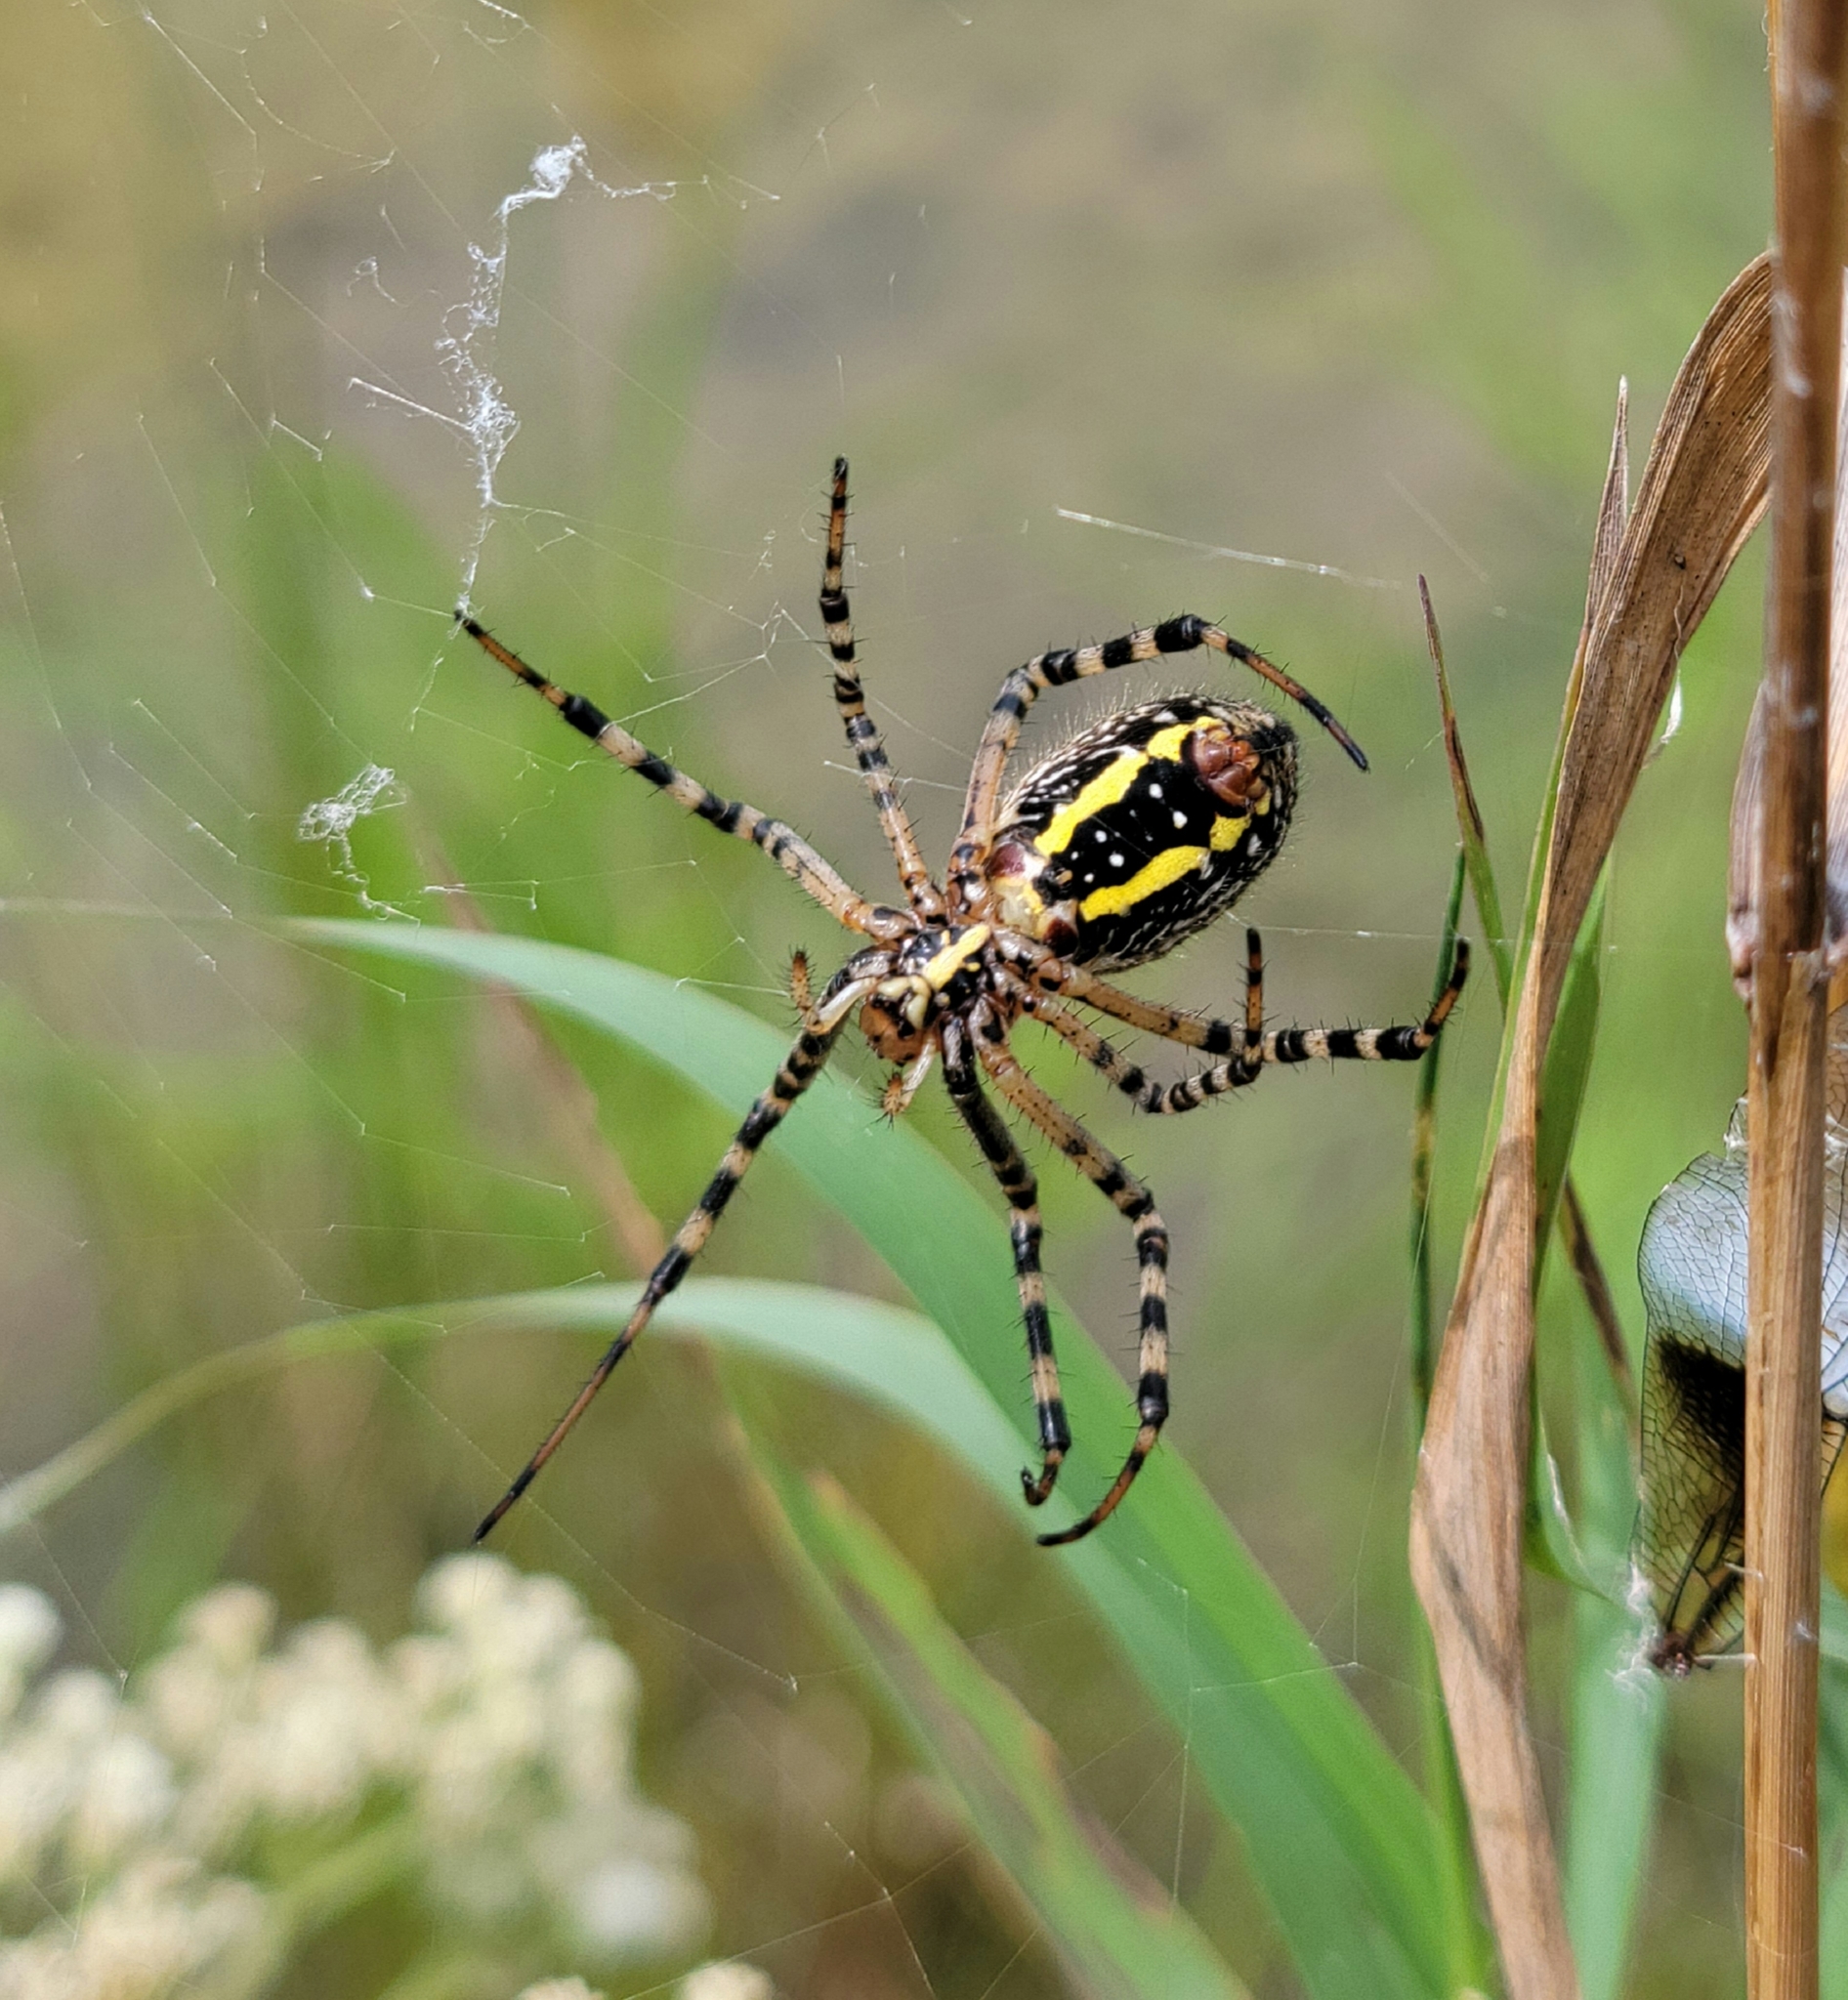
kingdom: Animalia
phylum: Arthropoda
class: Arachnida
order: Araneae
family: Araneidae
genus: Argiope
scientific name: Argiope trifasciata
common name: Banded garden spider
